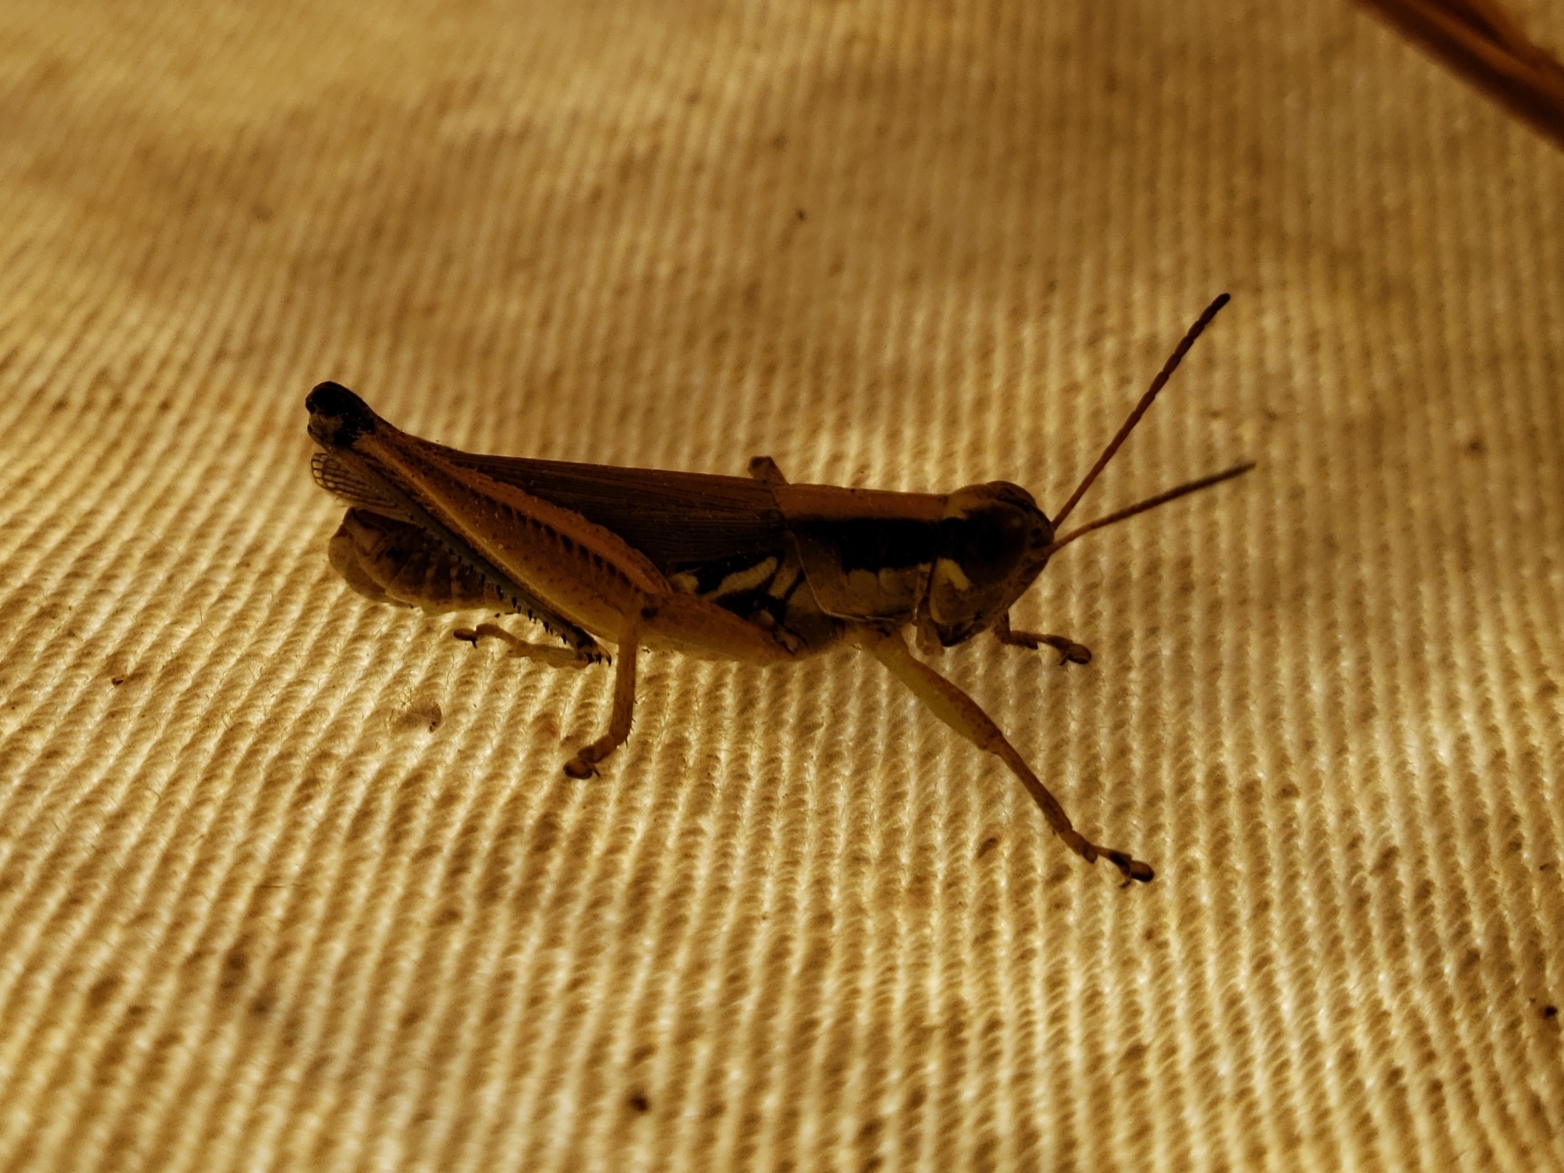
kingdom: Animalia
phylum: Arthropoda
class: Insecta
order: Orthoptera
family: Acrididae
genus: Paroxya
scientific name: Paroxya atlantica
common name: Atlantic grasshopper
